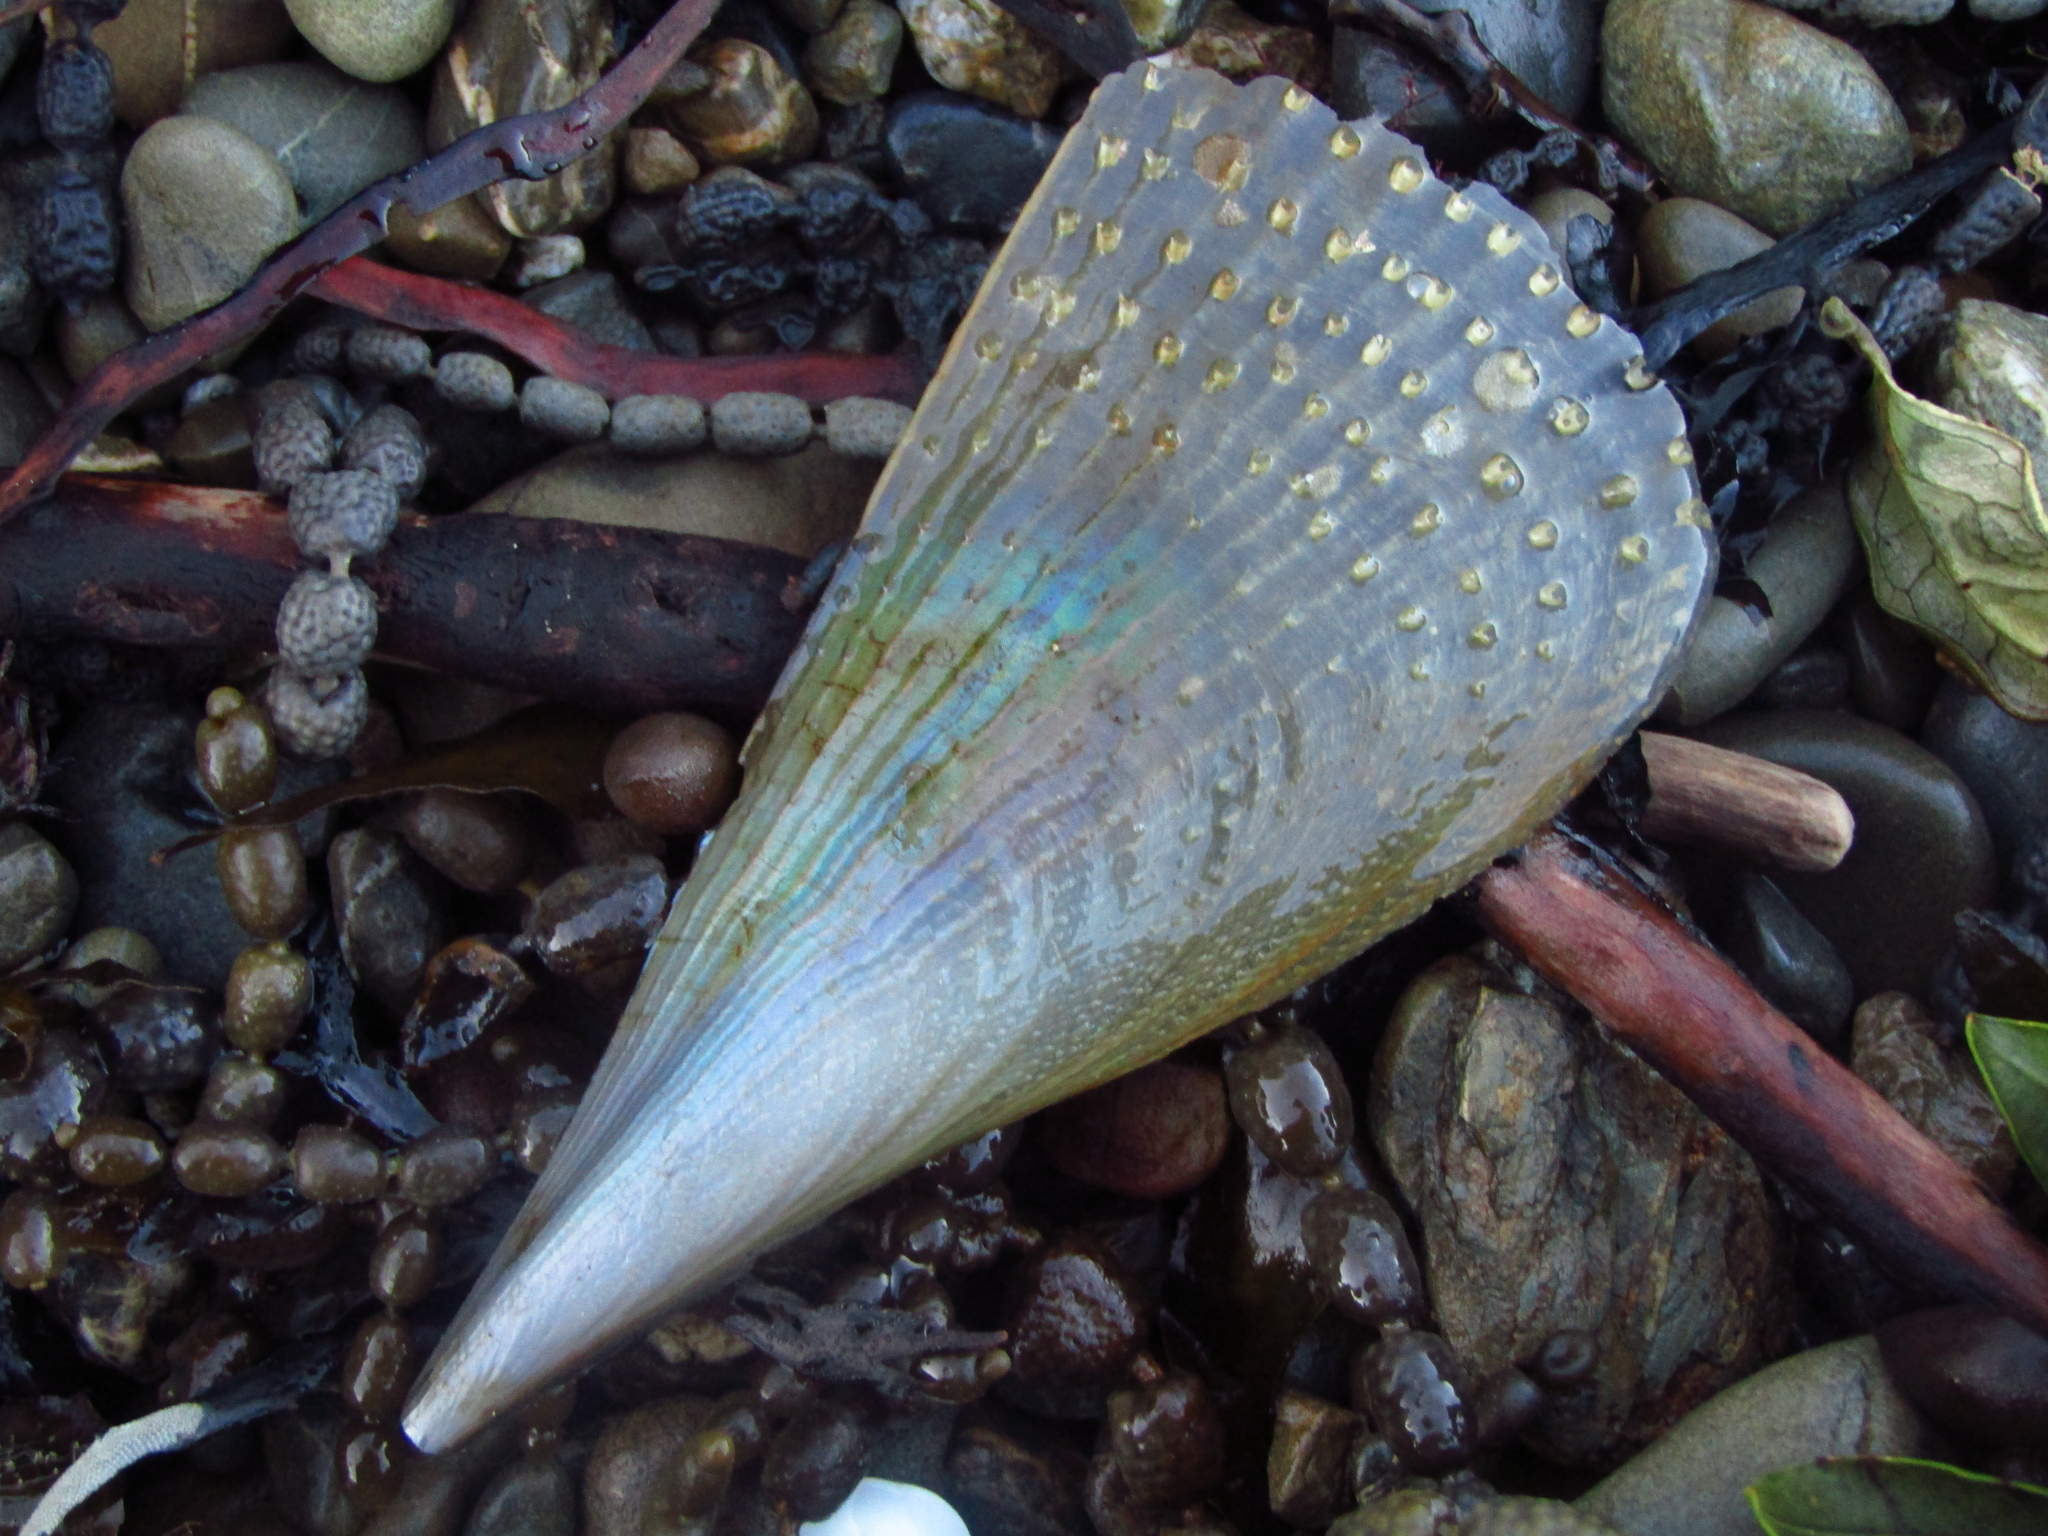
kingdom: Animalia
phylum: Mollusca
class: Bivalvia
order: Ostreida
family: Pinnidae
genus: Atrina
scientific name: Atrina zelandica
